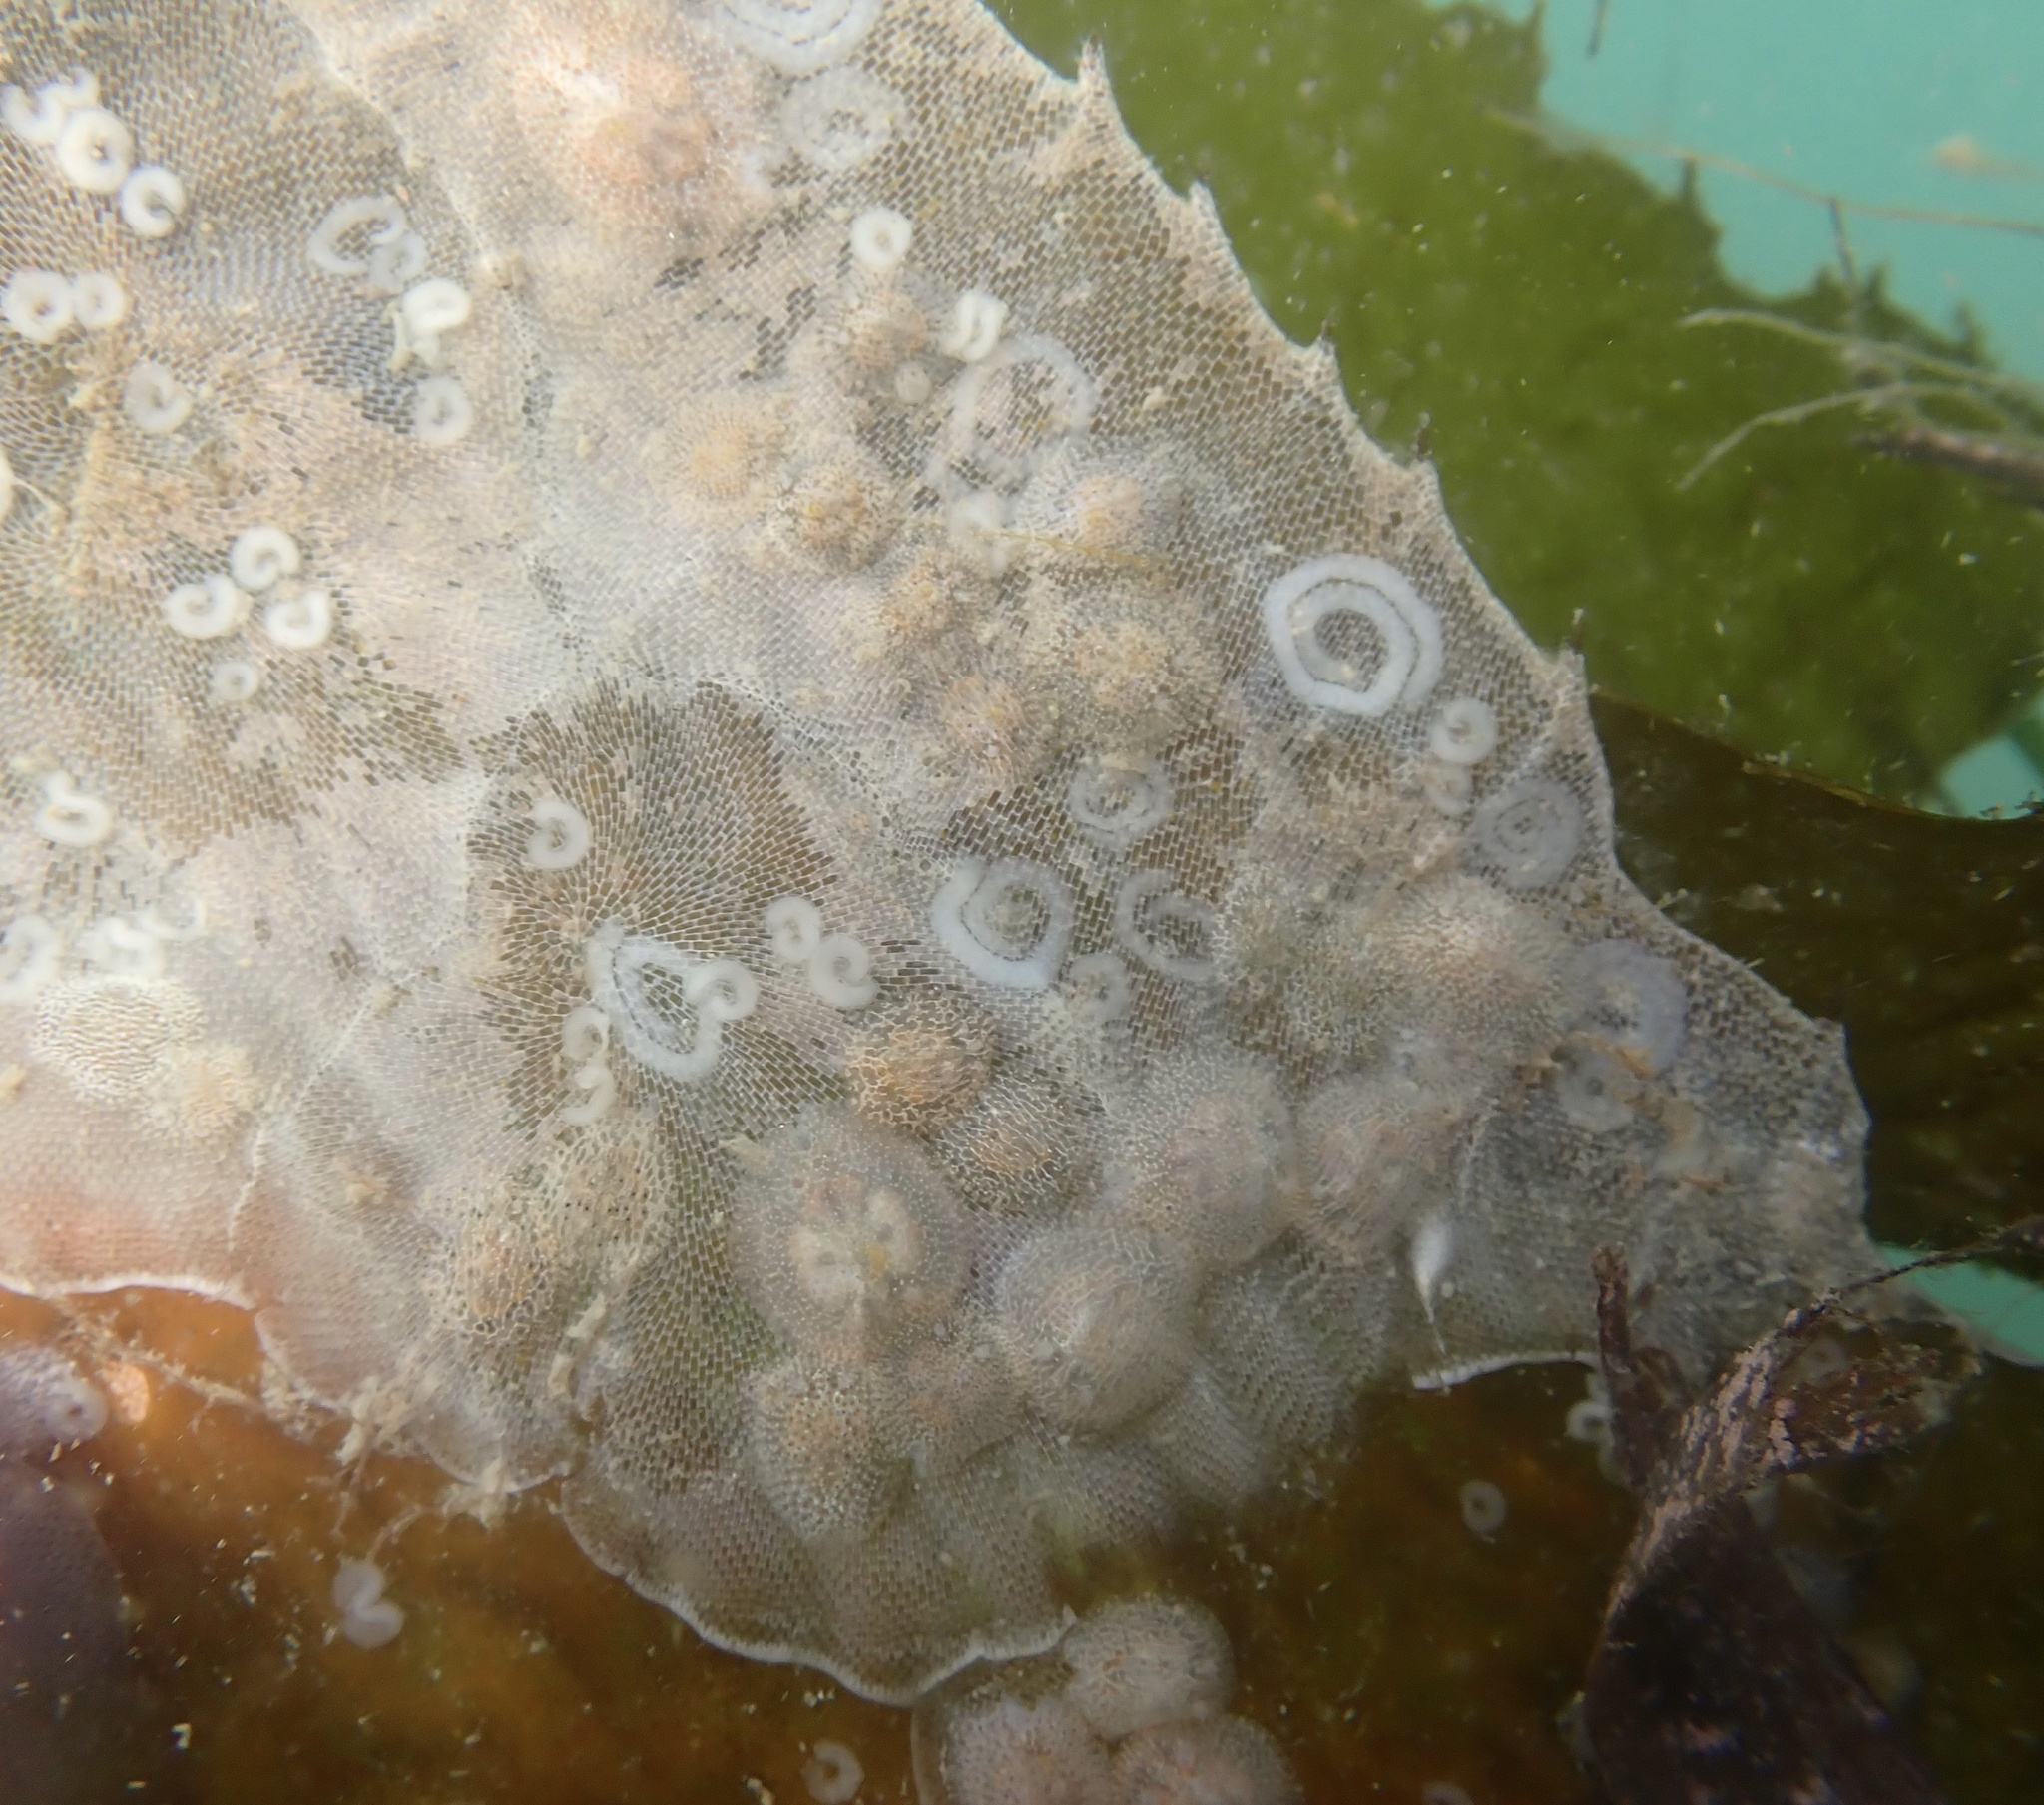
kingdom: Animalia
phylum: Mollusca
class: Gastropoda
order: Nudibranchia
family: Corambidae
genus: Corambe
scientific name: Corambe pacifica
